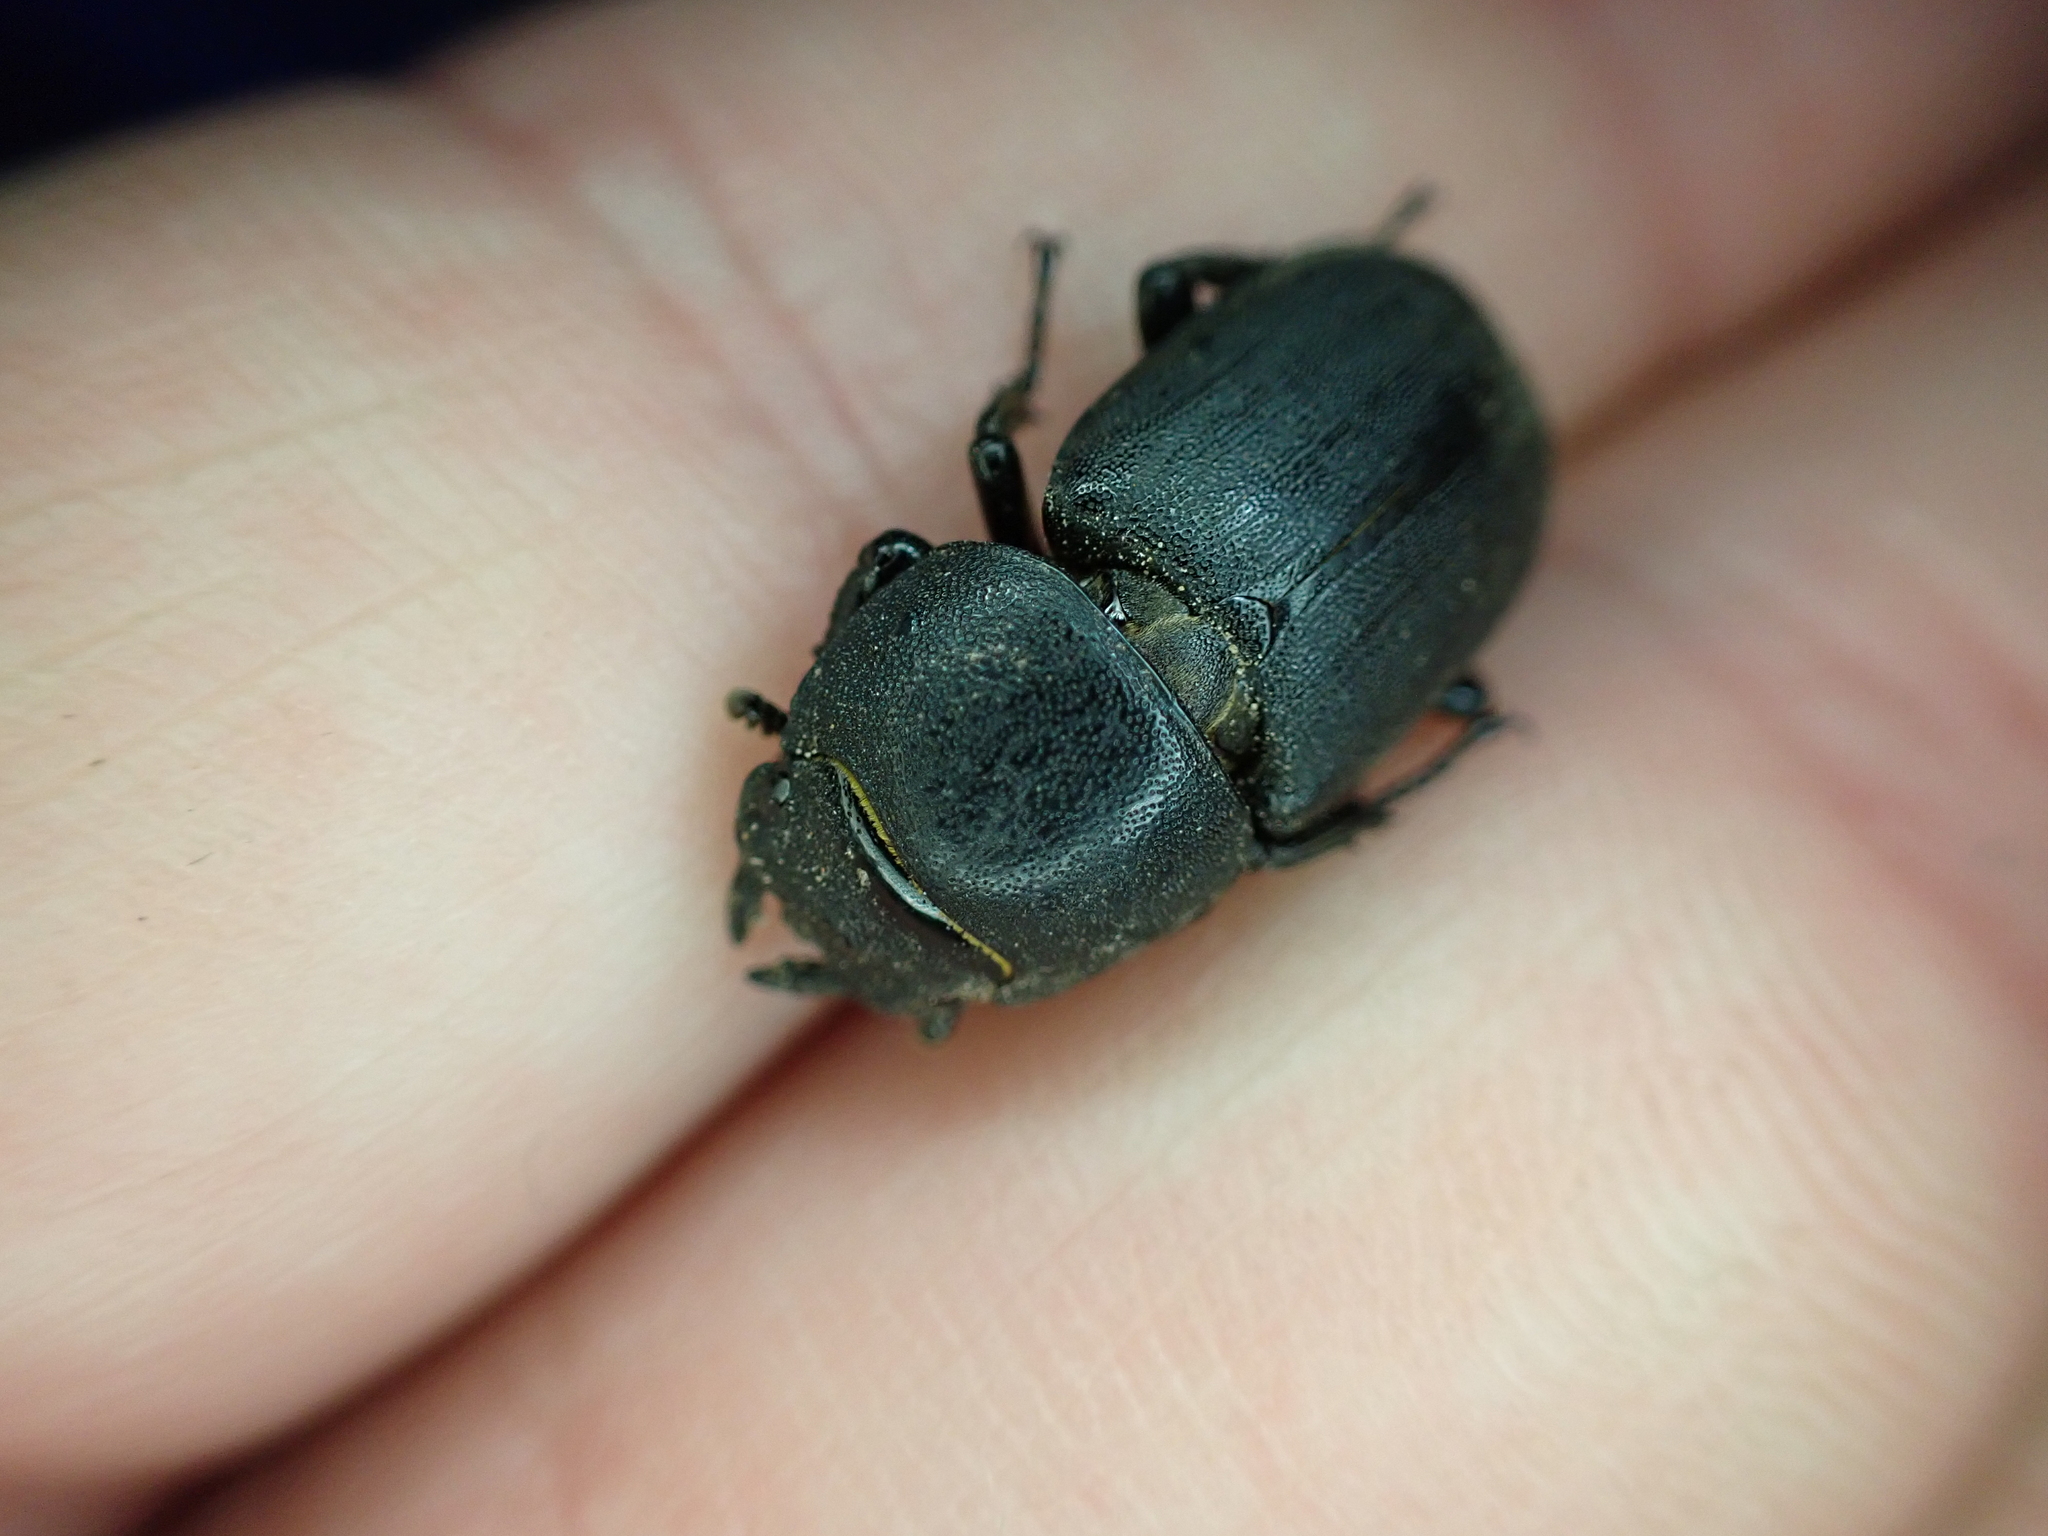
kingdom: Animalia
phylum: Arthropoda
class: Insecta
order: Coleoptera
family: Lucanidae
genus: Dorcus
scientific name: Dorcus parallelipipedus
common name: Lesser stag beetle
